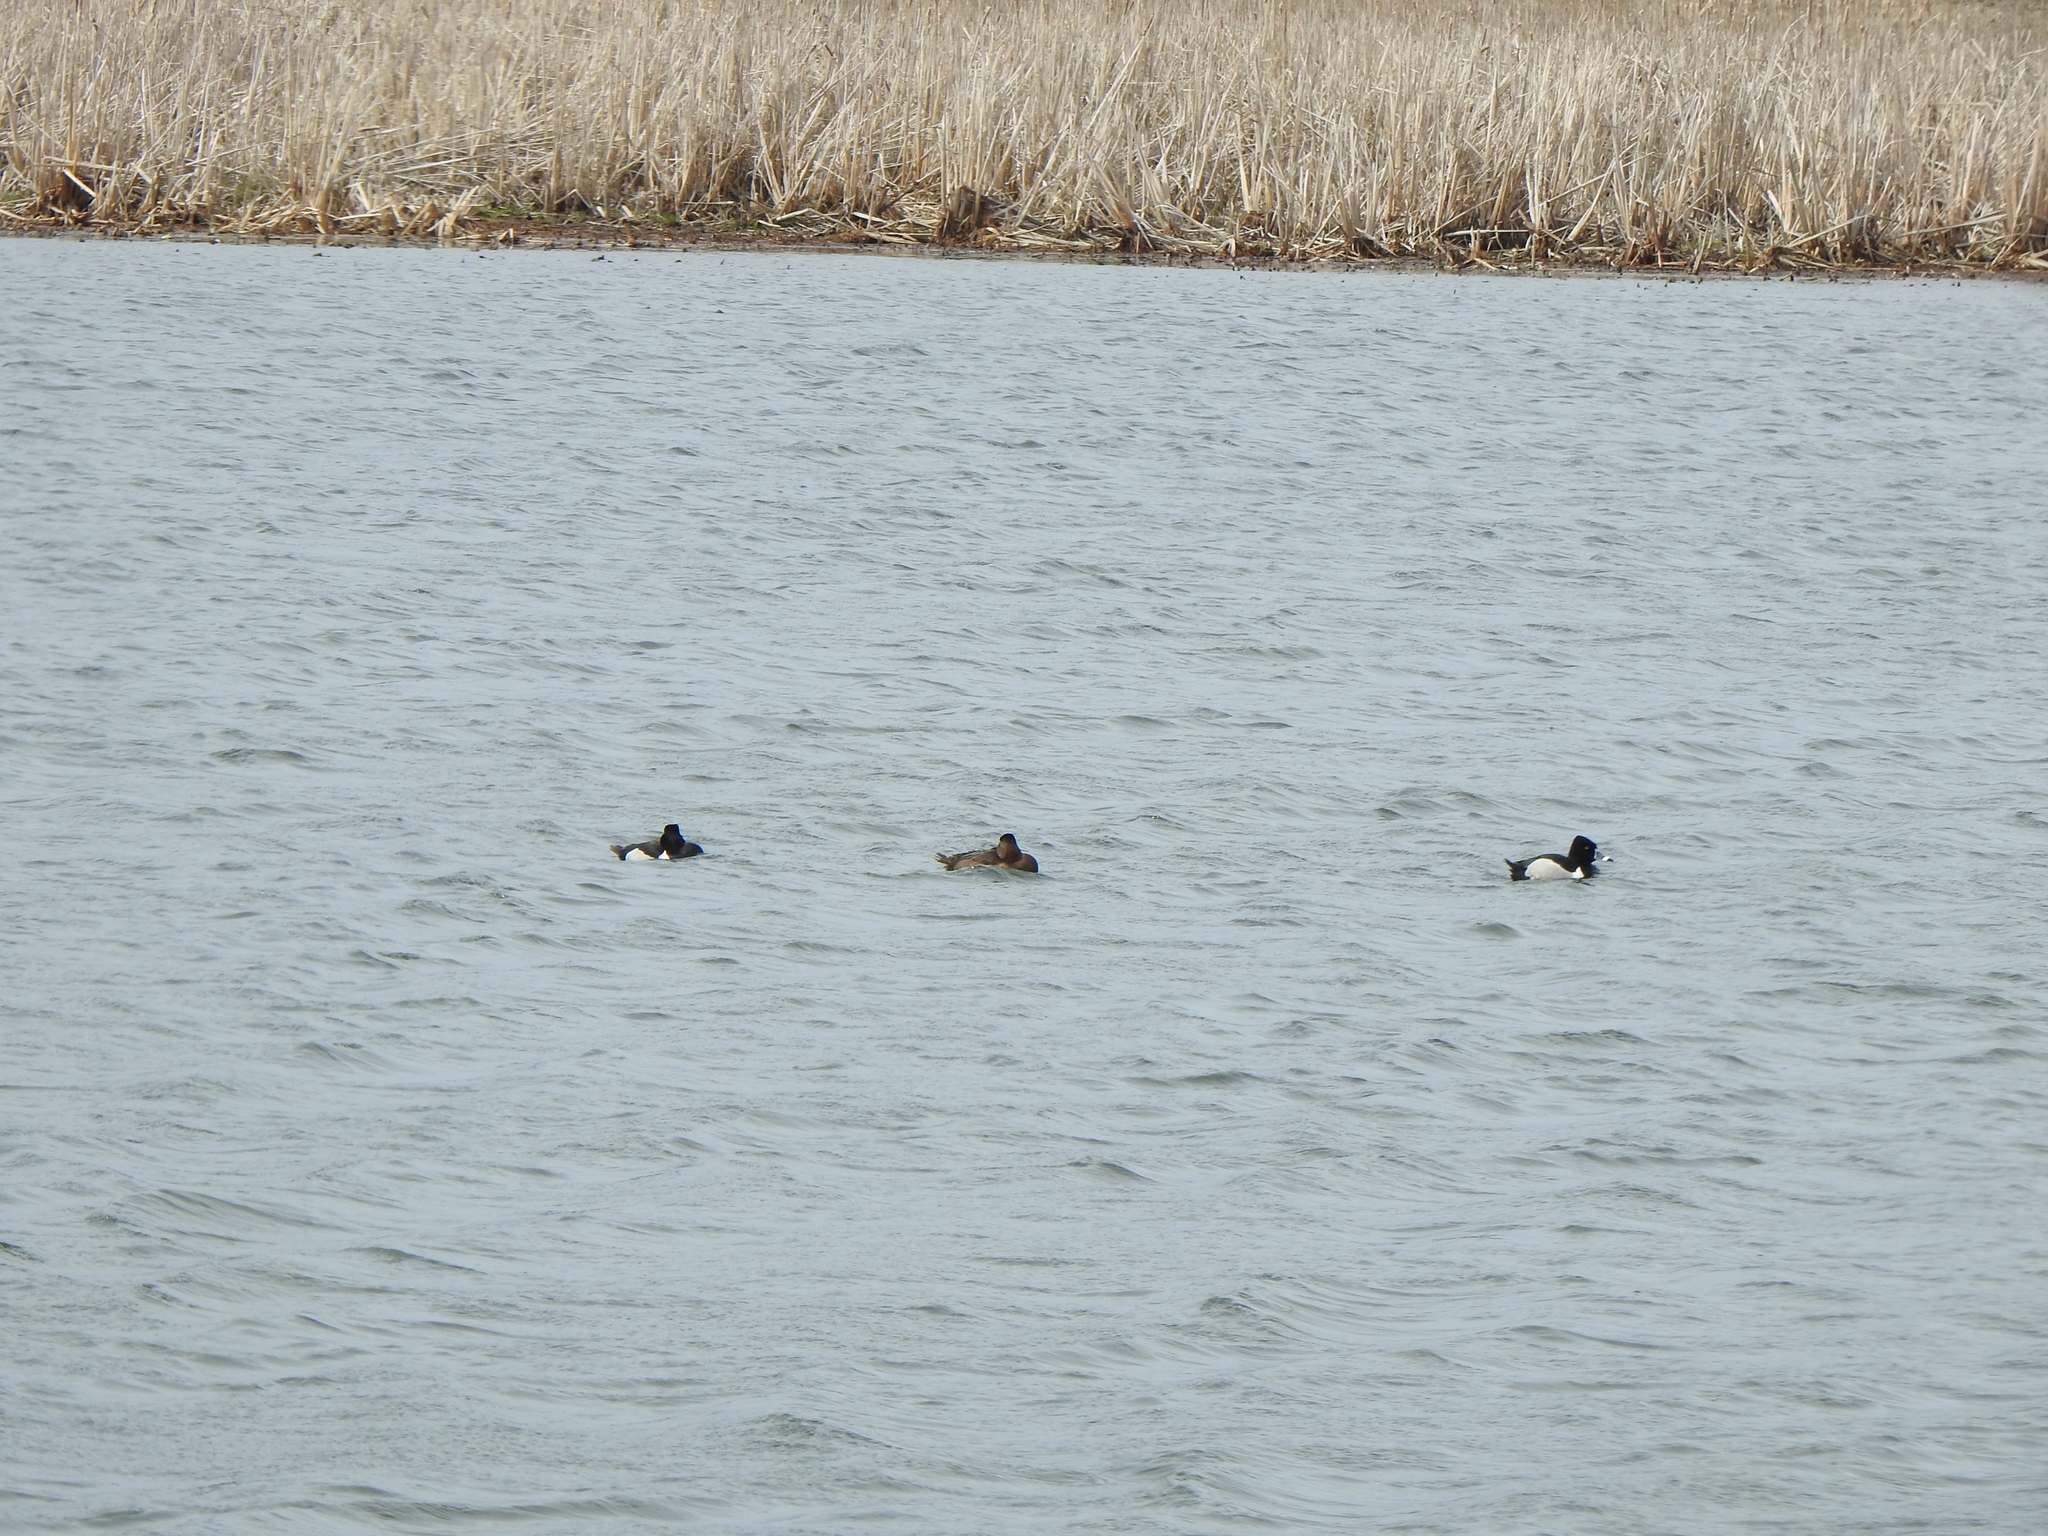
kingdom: Animalia
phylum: Chordata
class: Aves
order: Anseriformes
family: Anatidae
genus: Aythya
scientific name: Aythya collaris
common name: Ring-necked duck
